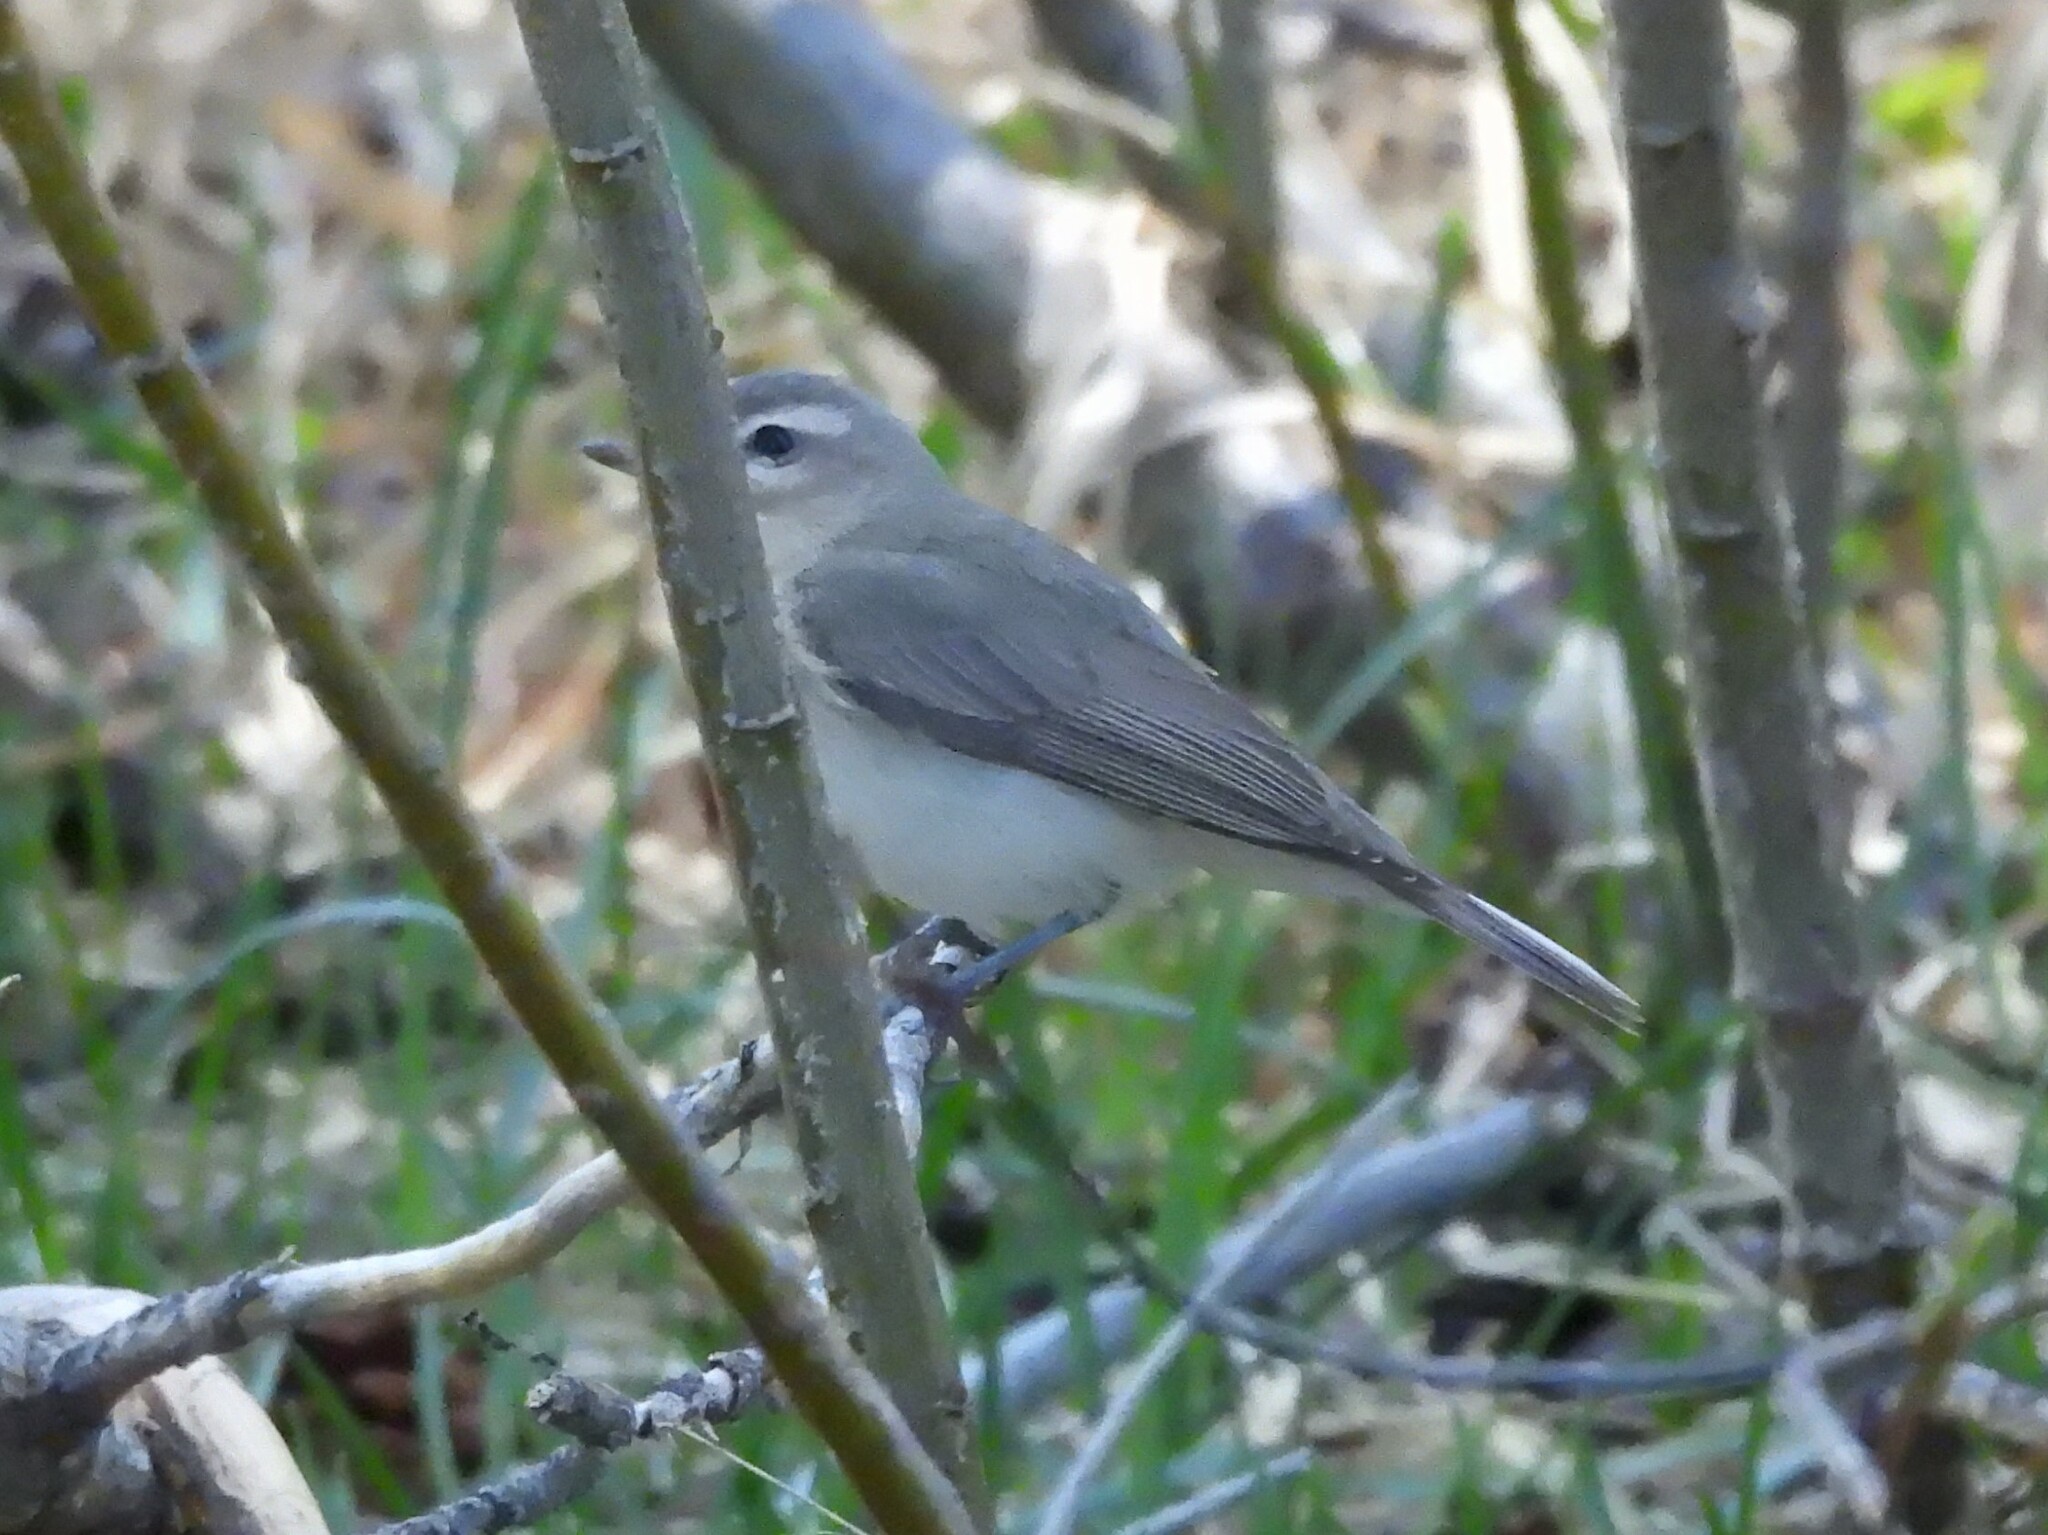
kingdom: Animalia
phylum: Chordata
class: Aves
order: Passeriformes
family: Vireonidae
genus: Vireo
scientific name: Vireo gilvus
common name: Warbling vireo
